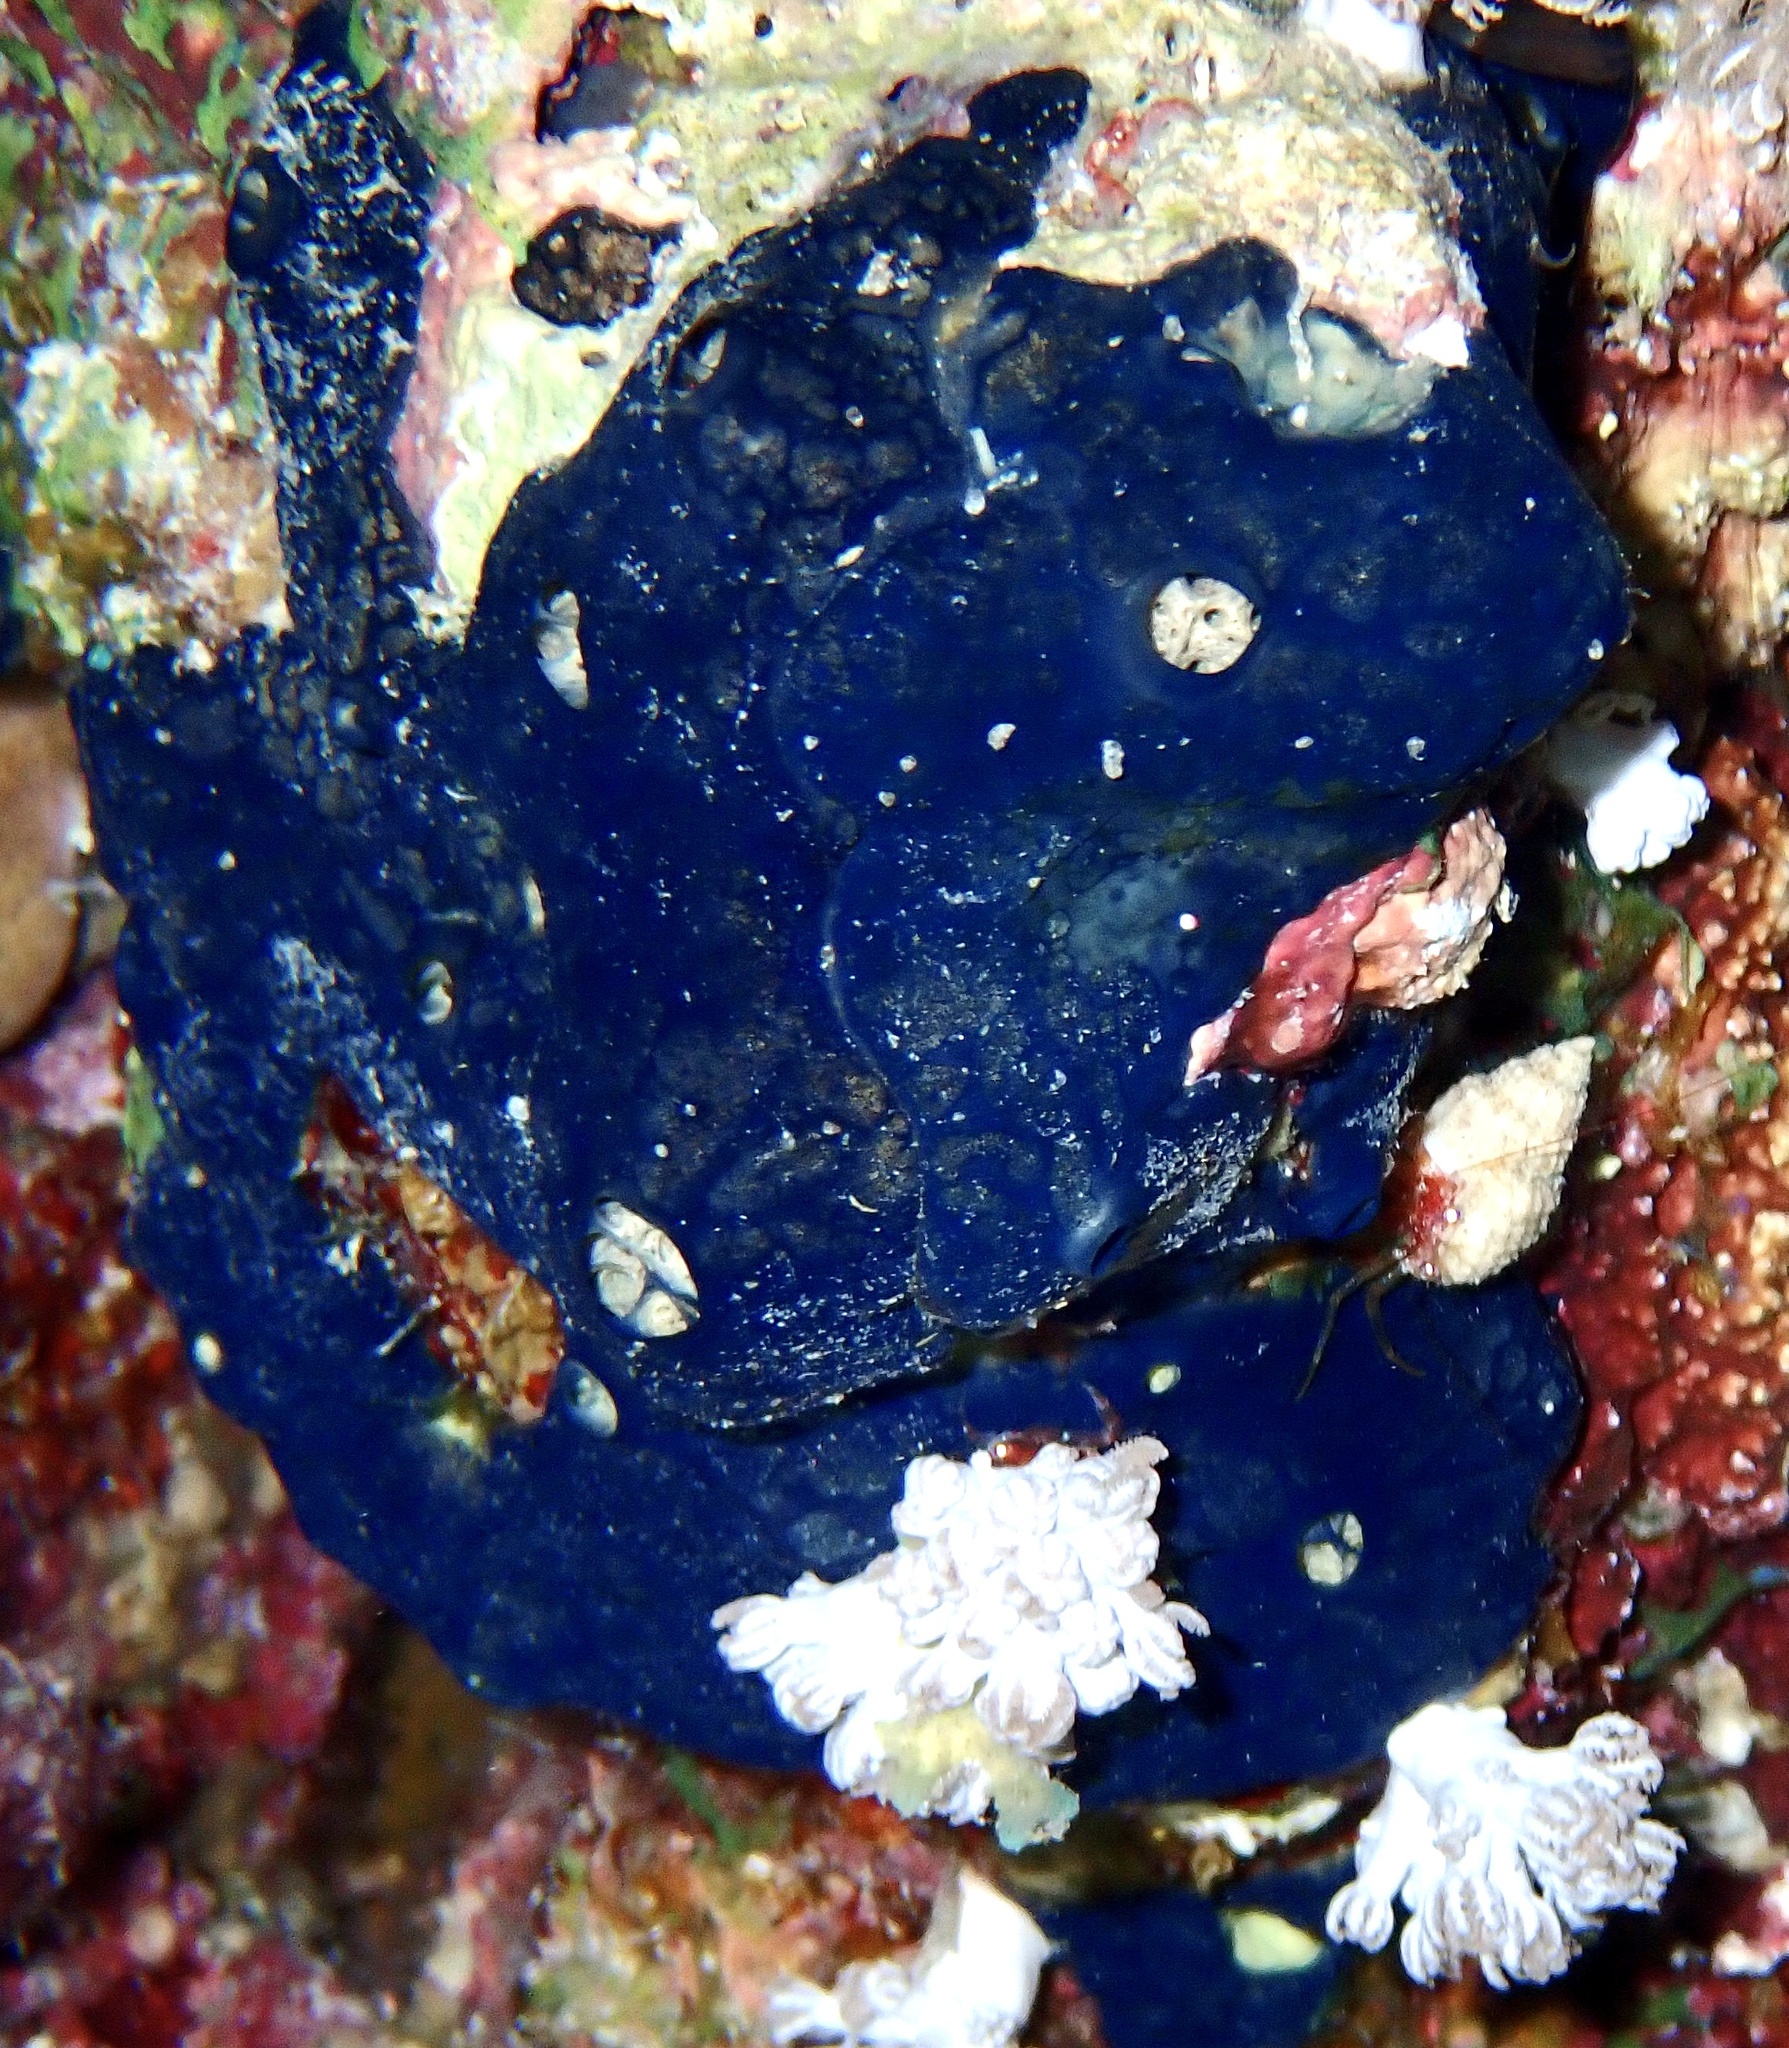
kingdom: Animalia
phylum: Porifera
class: Demospongiae
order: Poecilosclerida
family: Hymedesmiidae
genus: Hemimycale
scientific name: Hemimycale arabica
